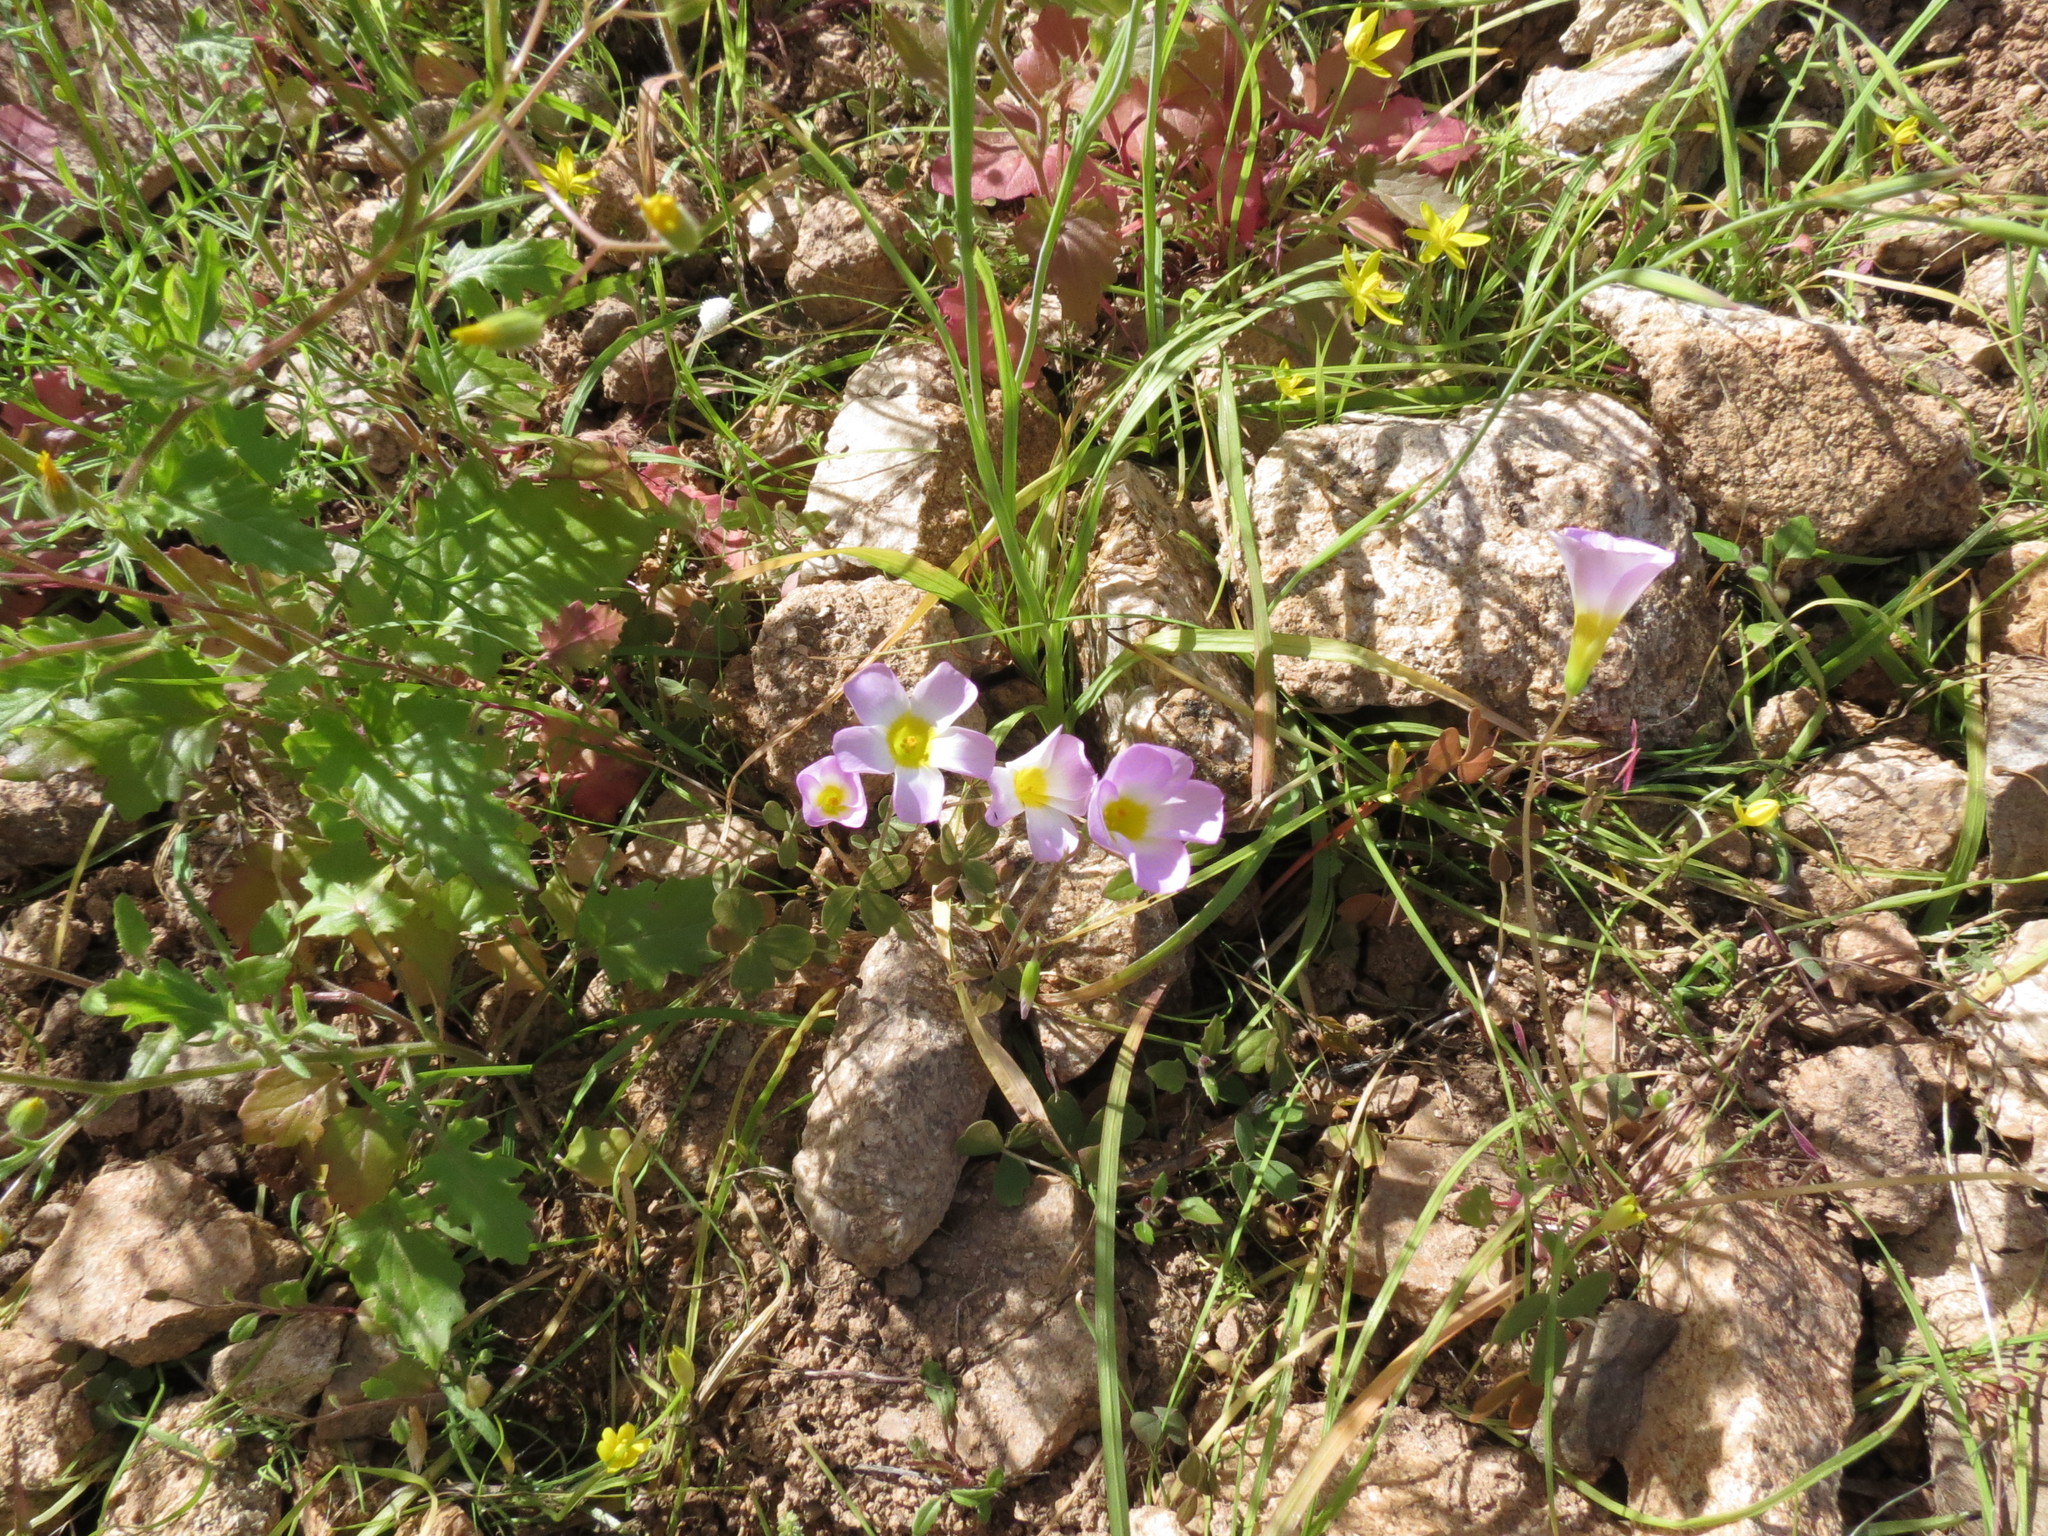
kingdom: Plantae
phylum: Tracheophyta
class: Magnoliopsida
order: Oxalidales
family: Oxalidaceae
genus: Oxalis
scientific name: Oxalis obtusa
